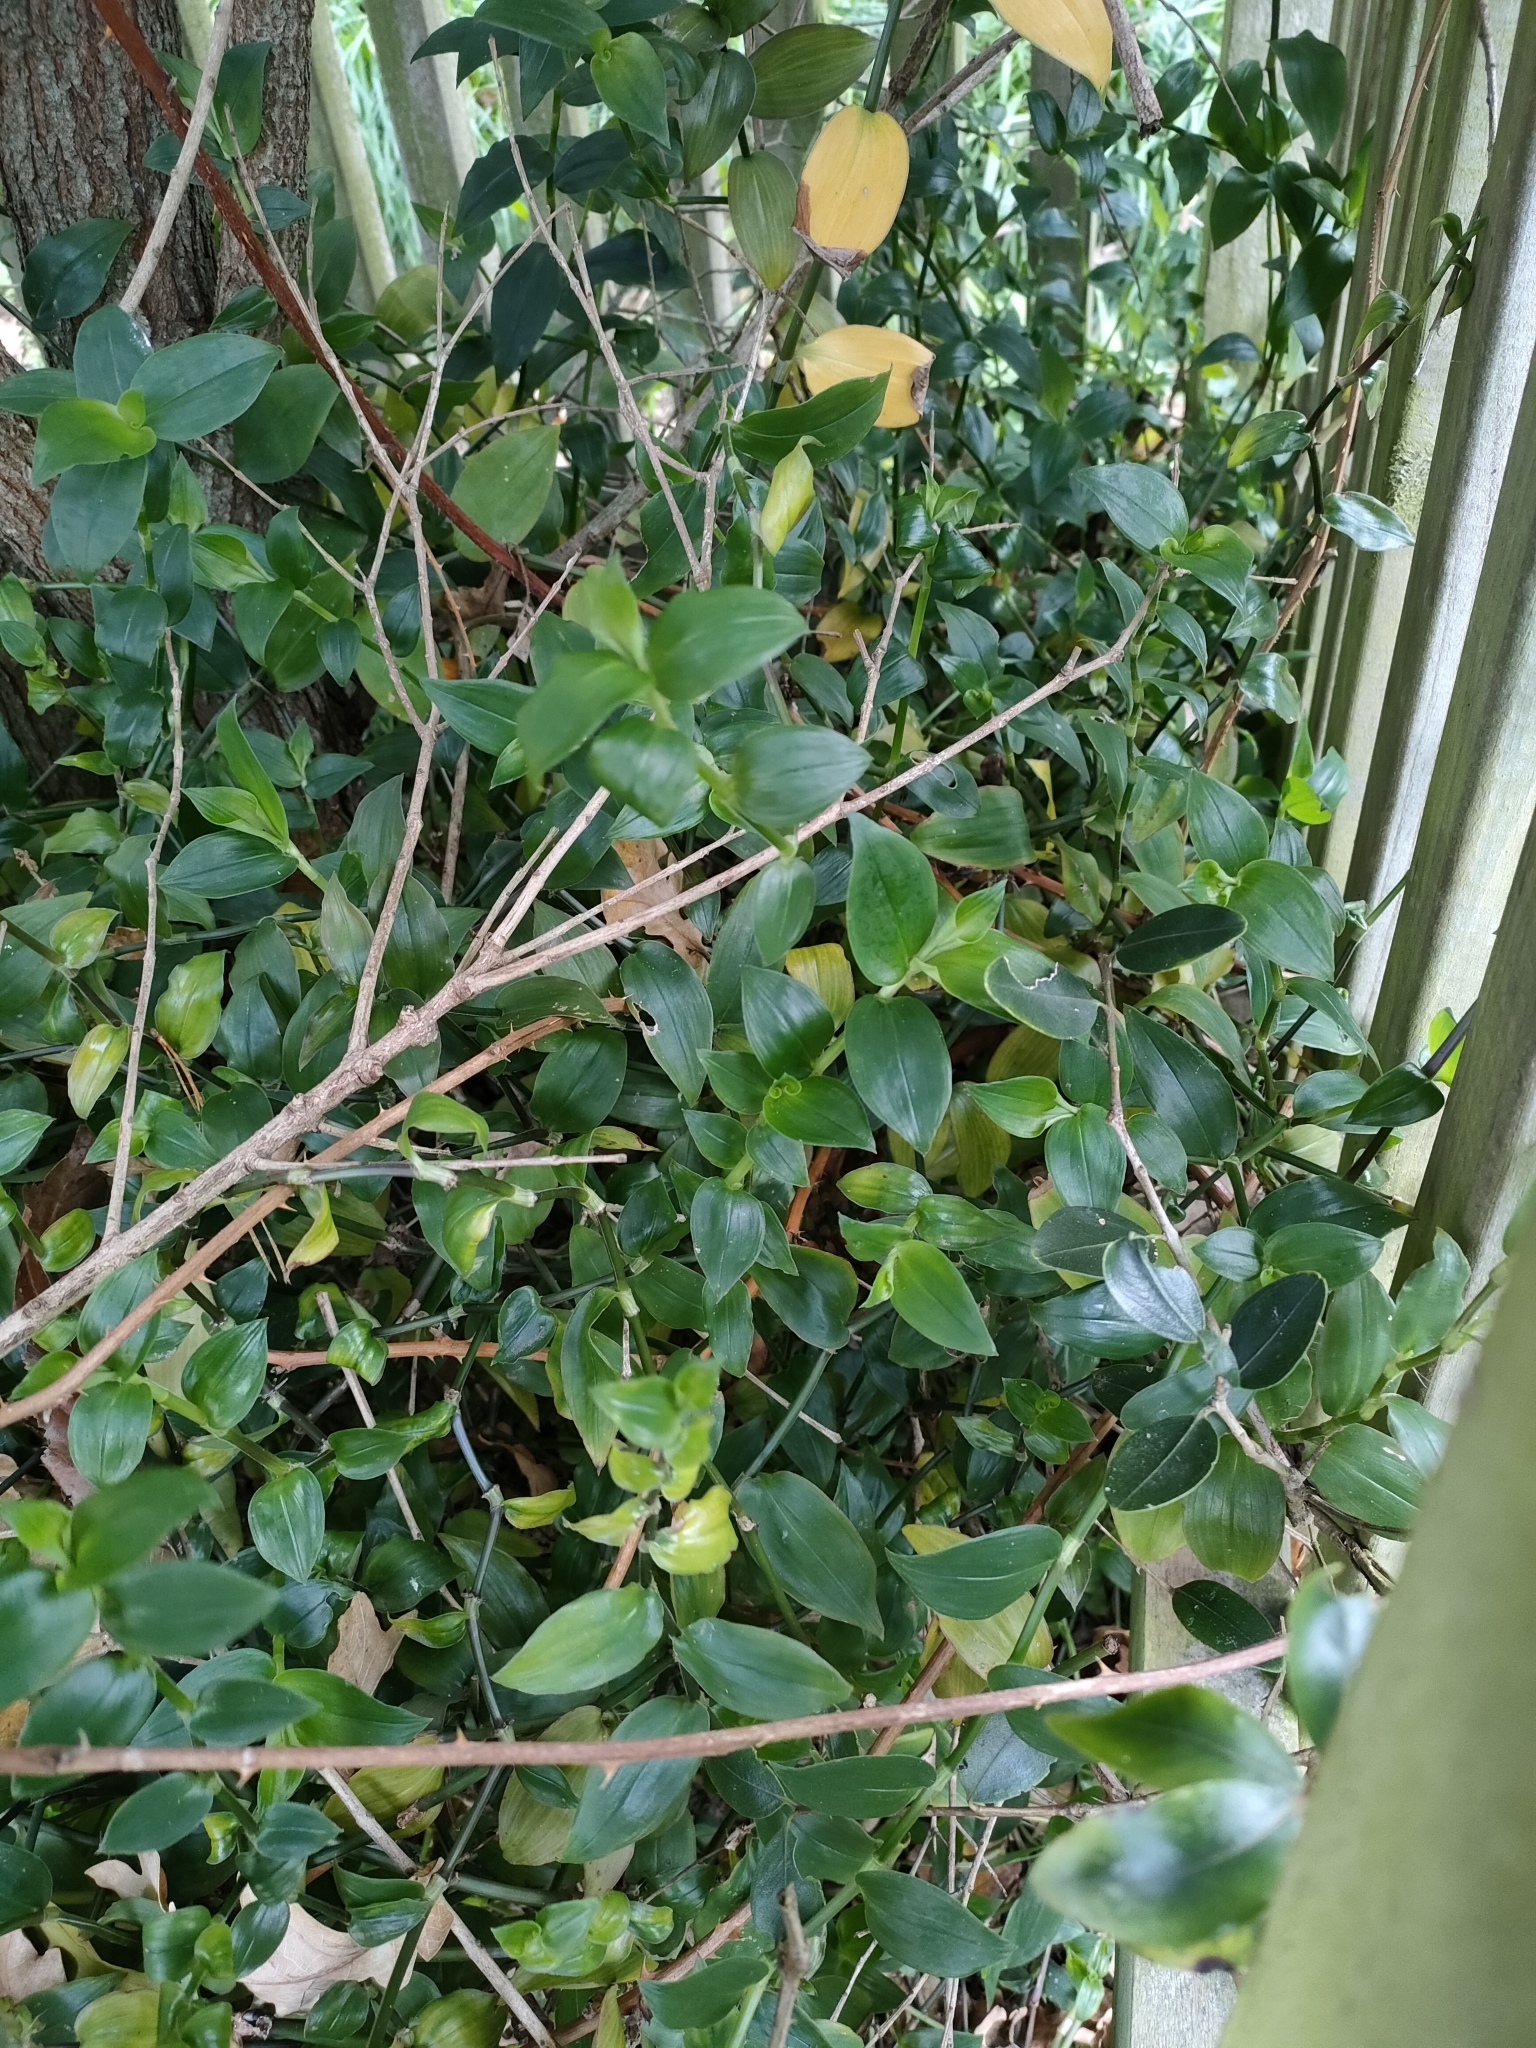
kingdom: Plantae
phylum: Tracheophyta
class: Liliopsida
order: Commelinales
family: Commelinaceae
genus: Tradescantia
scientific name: Tradescantia fluminensis
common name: Wandering-jew
